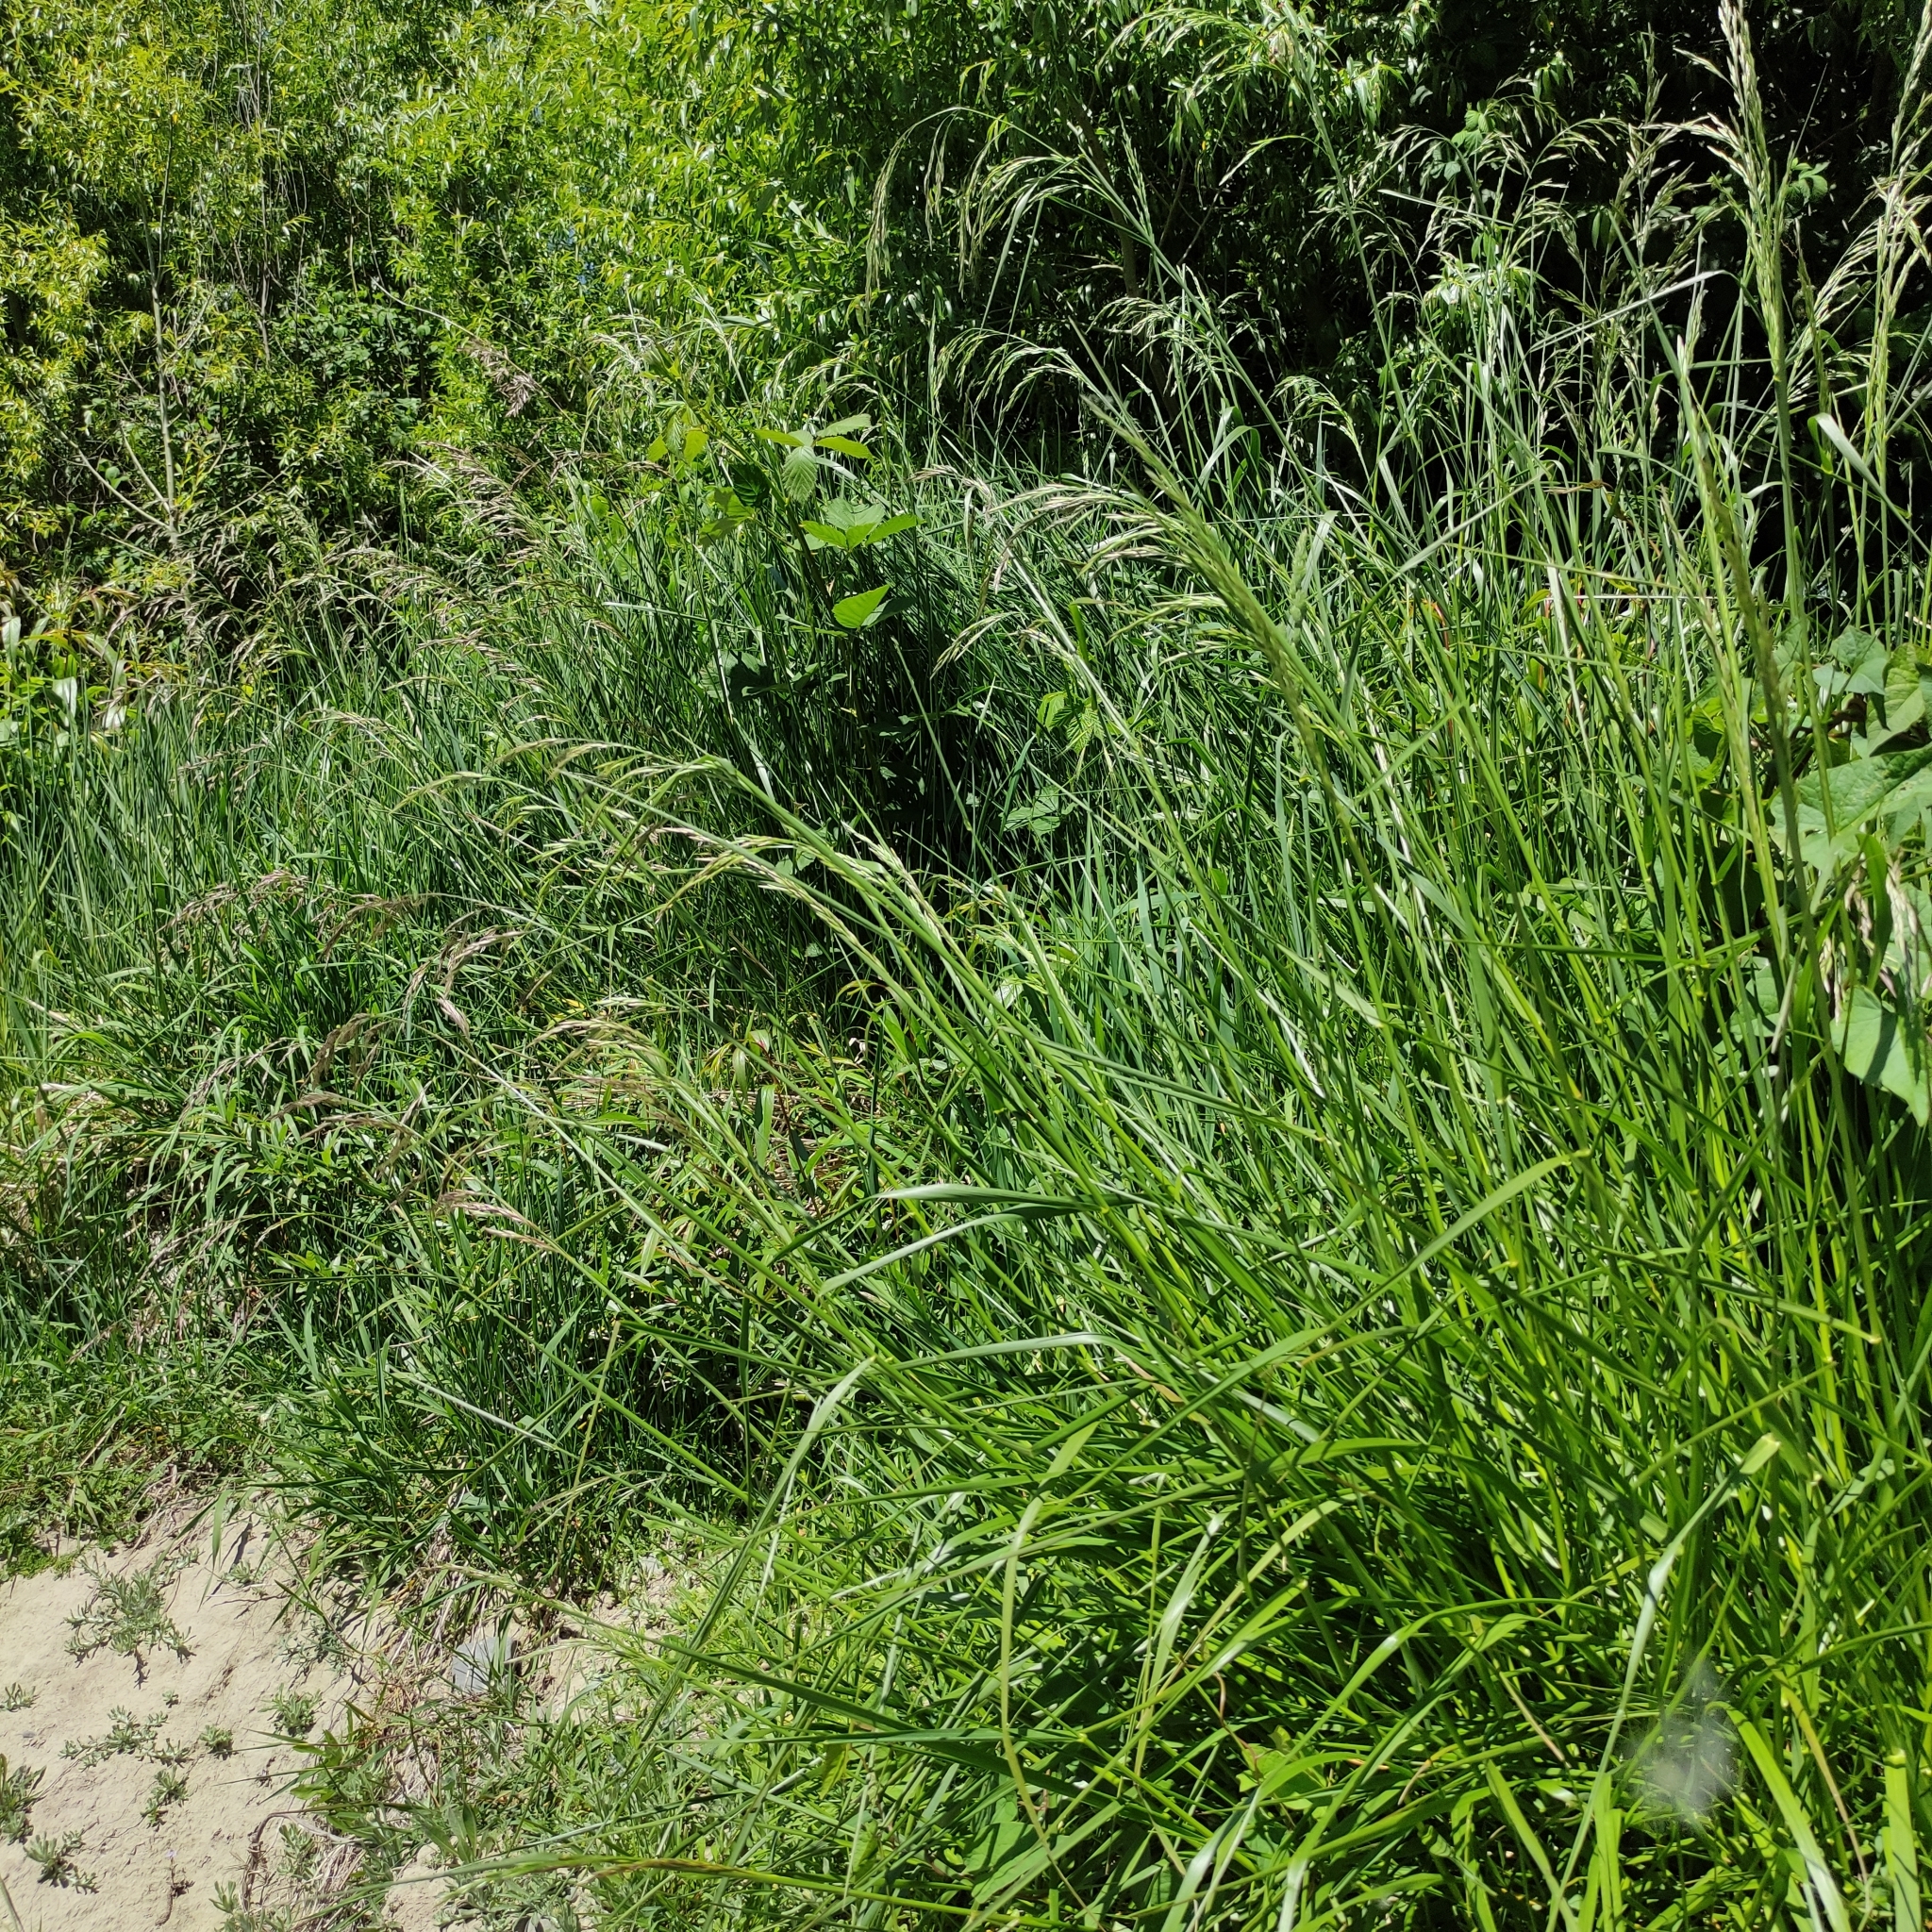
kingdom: Plantae
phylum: Tracheophyta
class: Liliopsida
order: Poales
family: Poaceae
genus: Lolium
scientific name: Lolium arundinaceum
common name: Reed fescue
